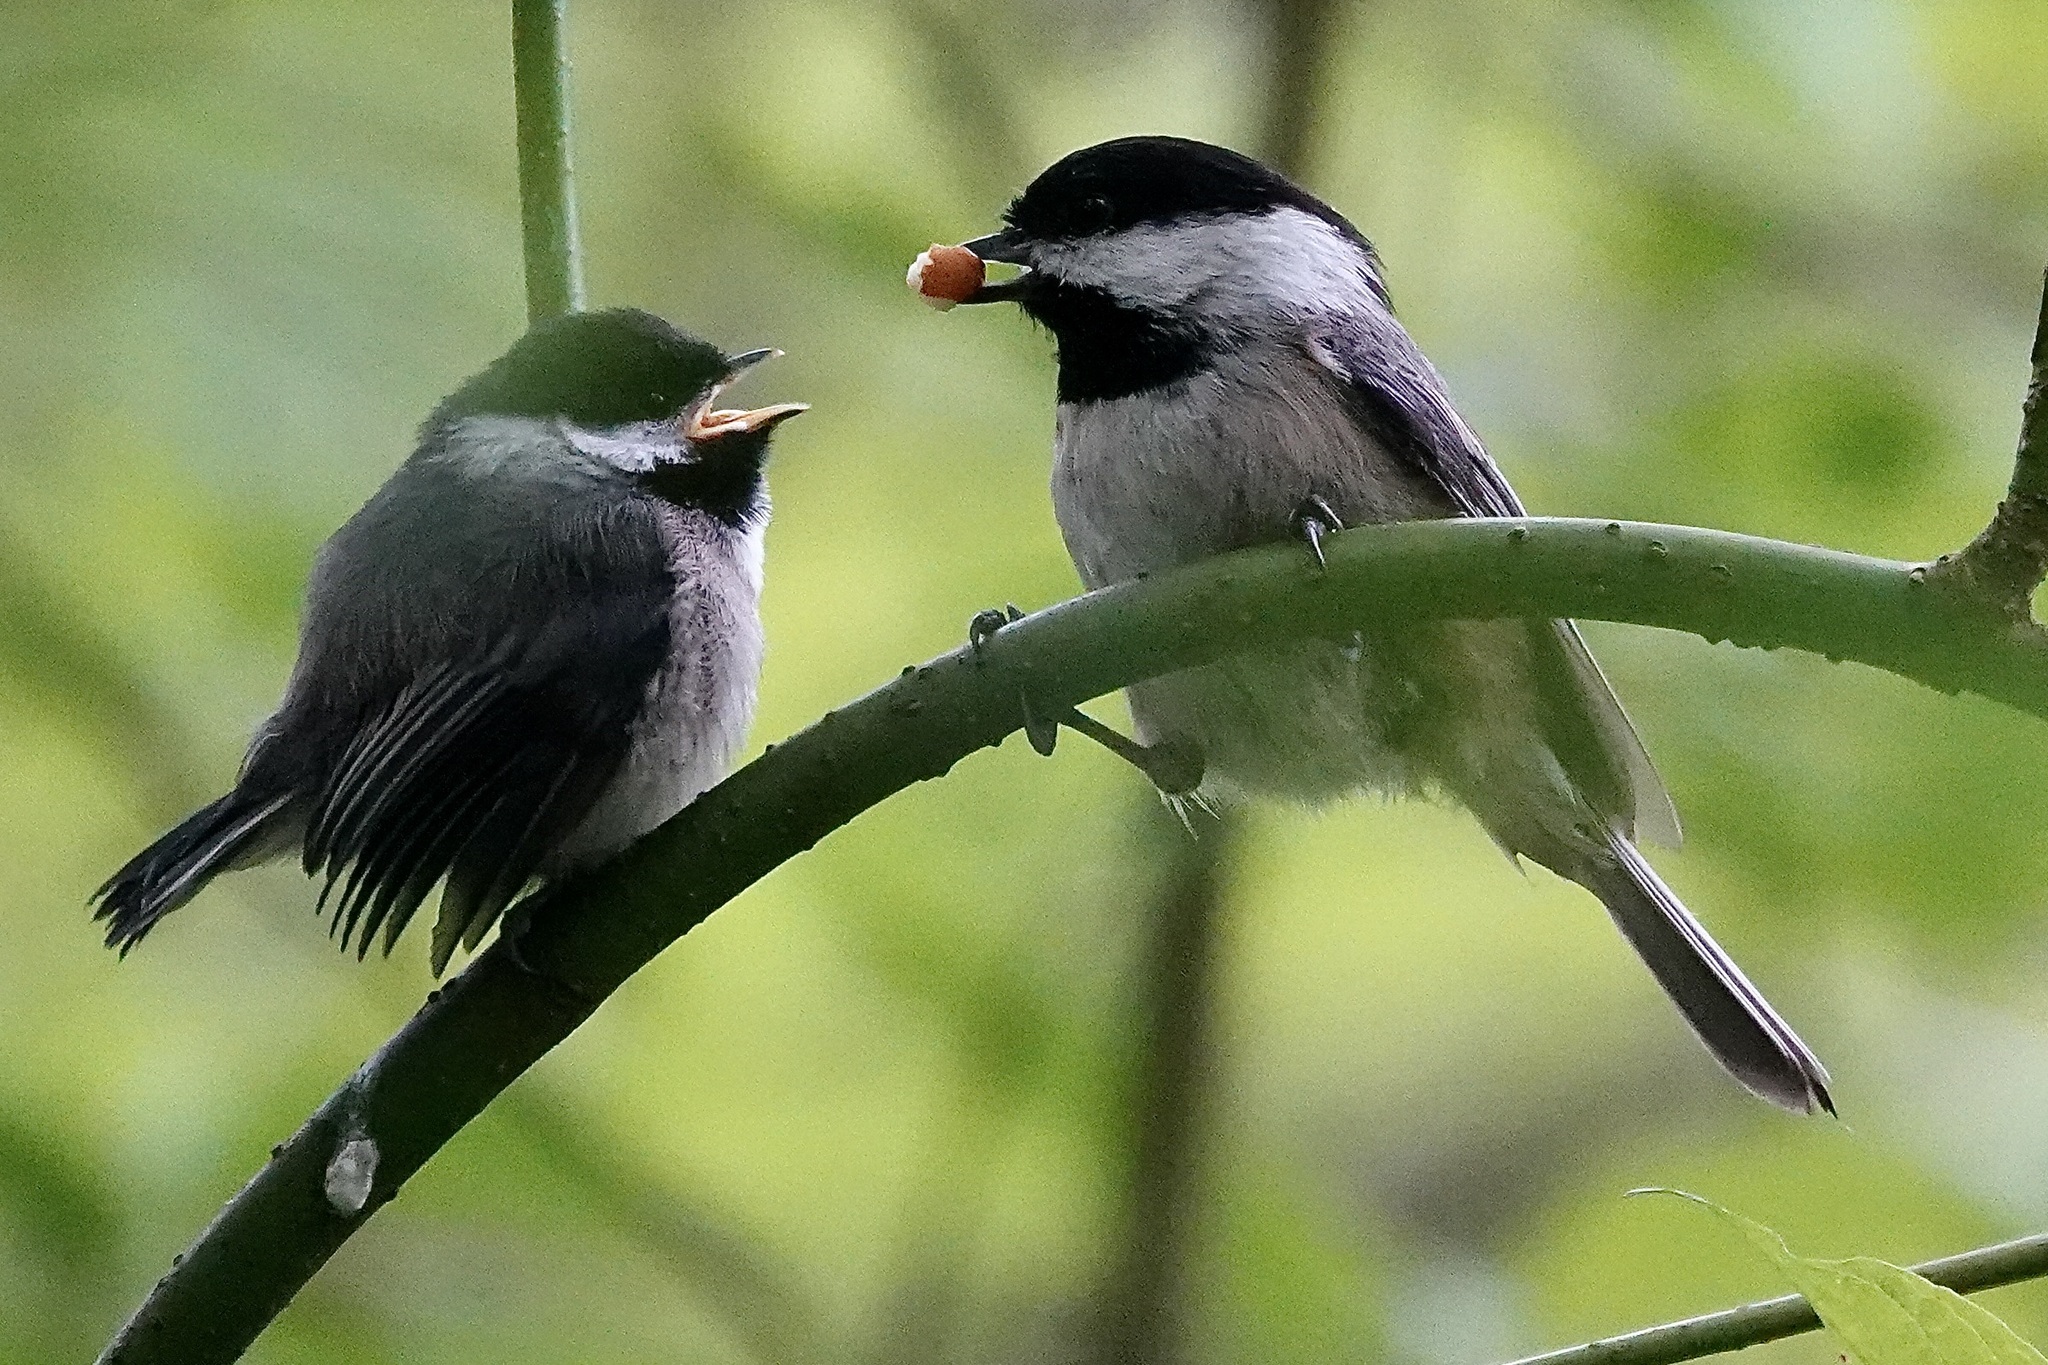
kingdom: Animalia
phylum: Chordata
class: Aves
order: Passeriformes
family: Paridae
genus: Poecile
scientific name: Poecile atricapillus
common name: Black-capped chickadee
